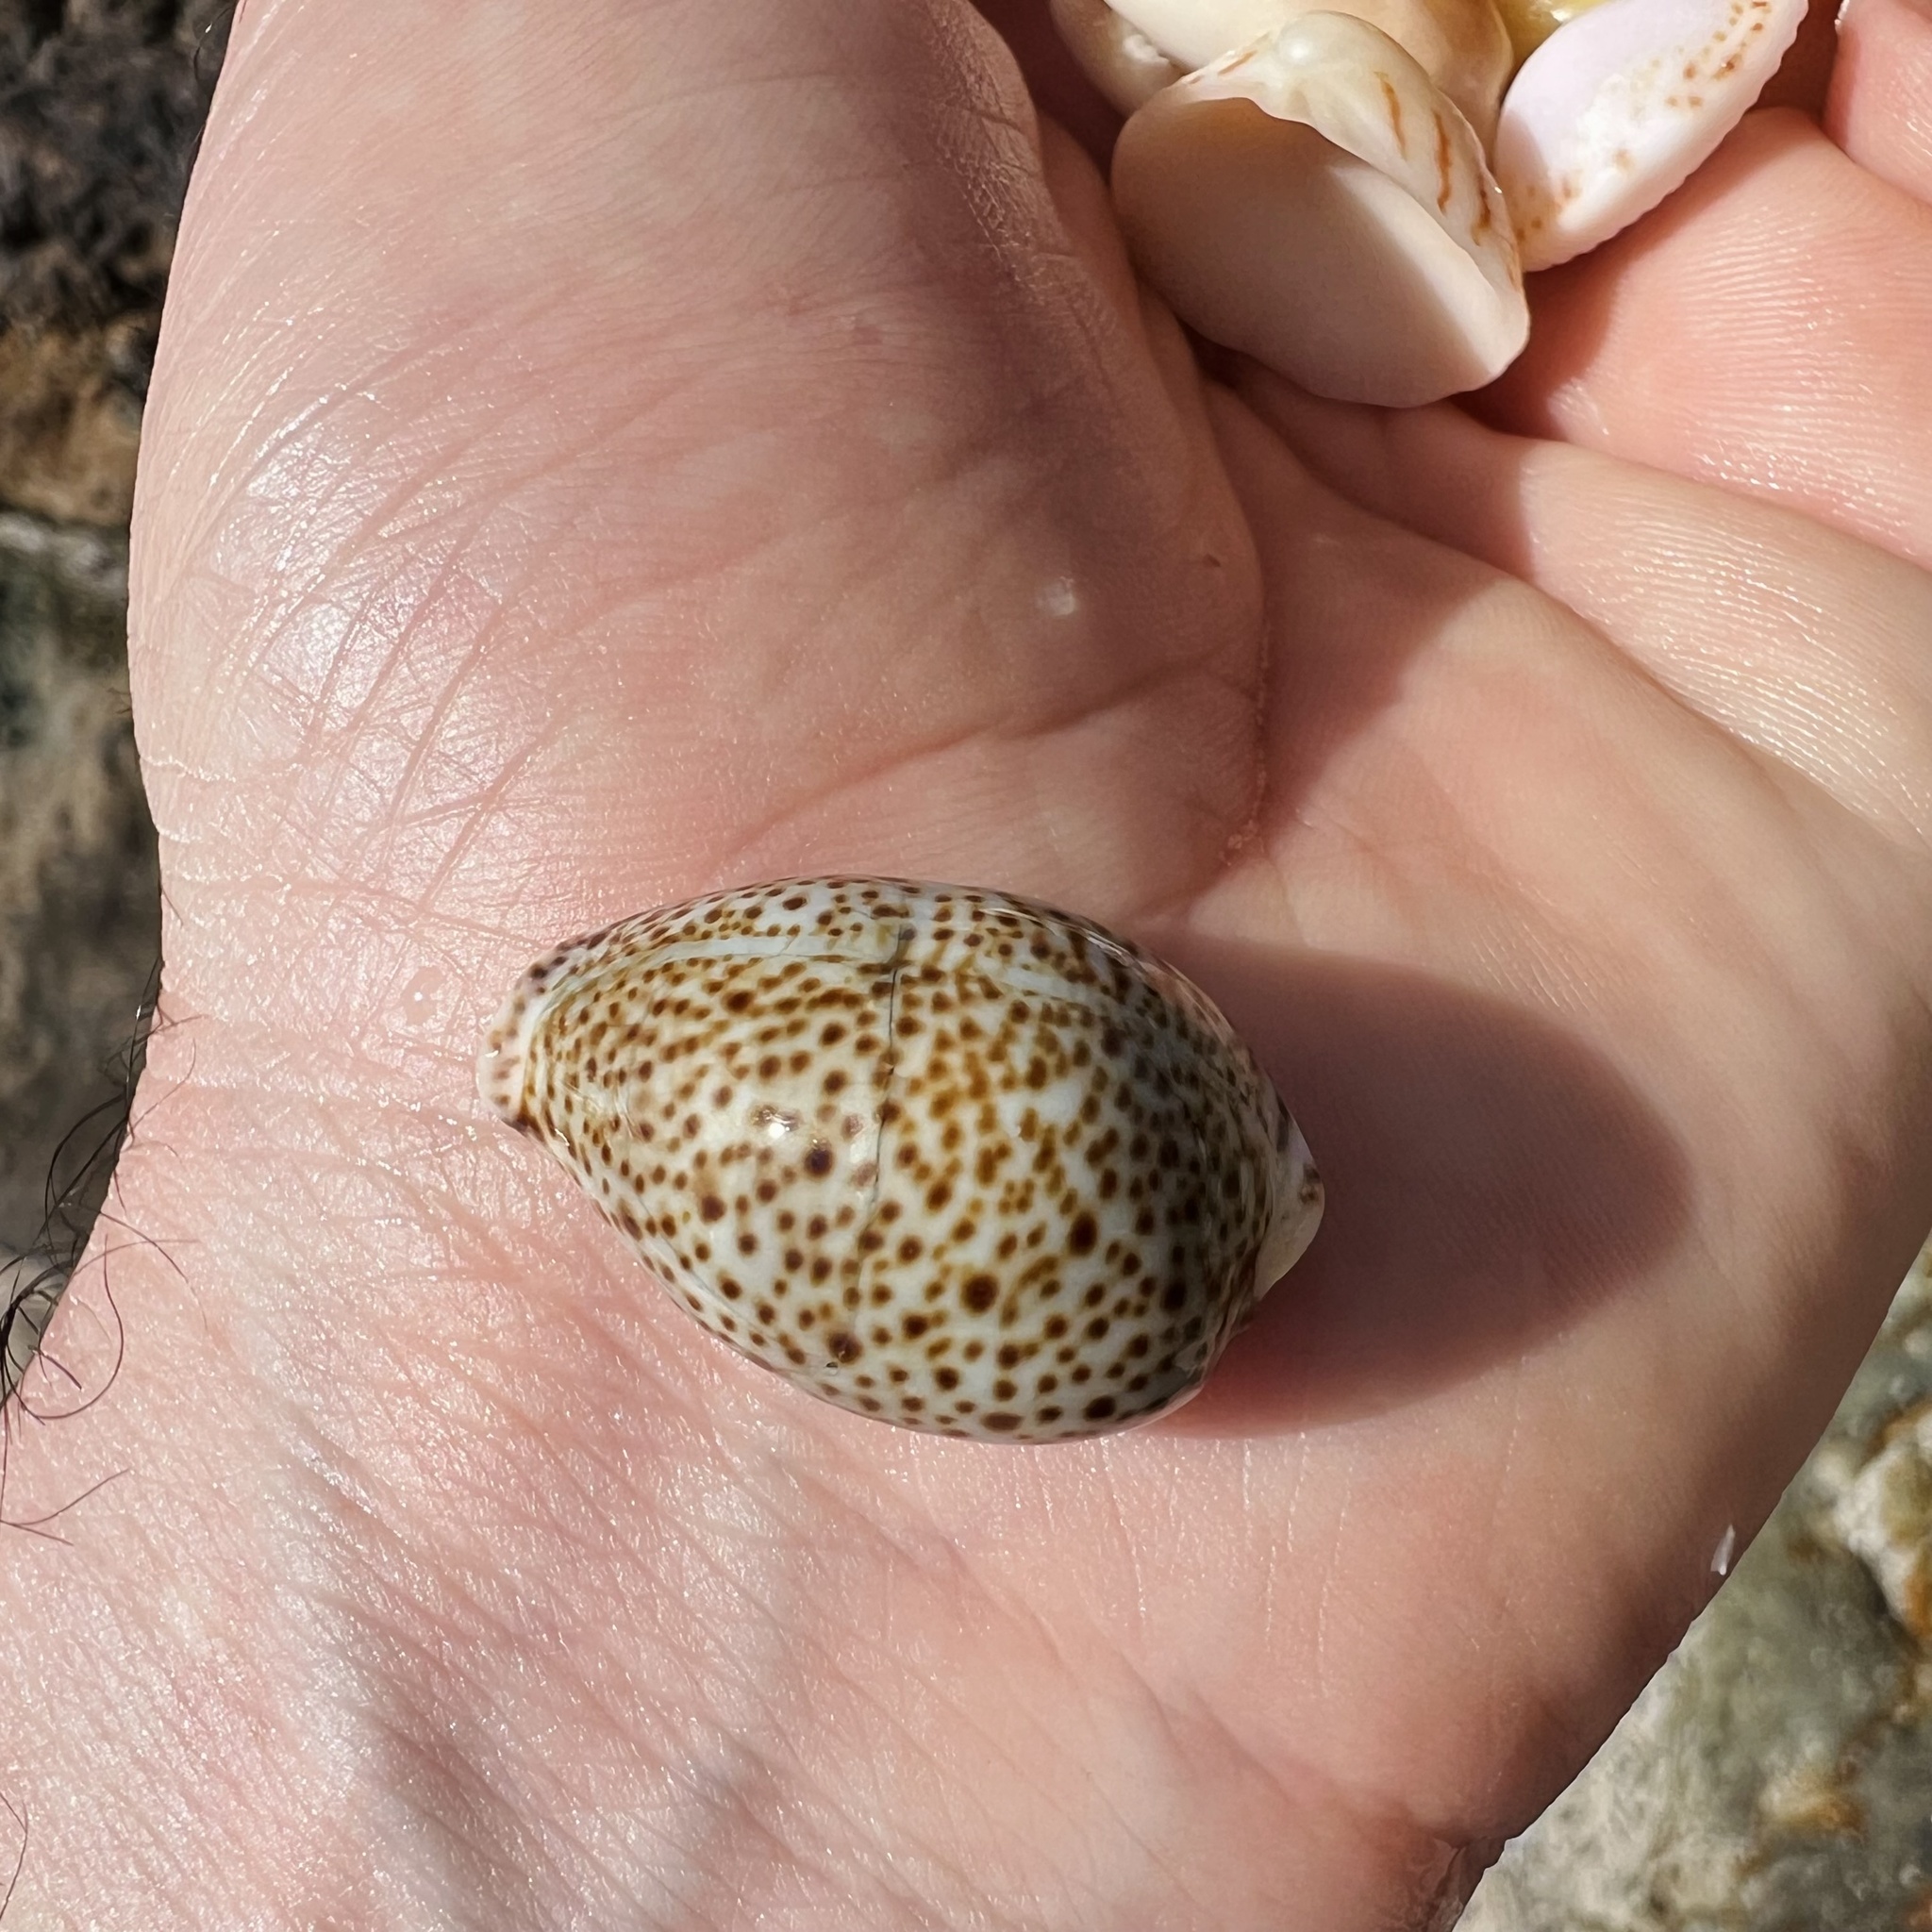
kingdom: Animalia
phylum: Mollusca
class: Gastropoda
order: Littorinimorpha
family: Cypraeidae
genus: Naria
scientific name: Naria turdus
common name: Thrush cowrie
